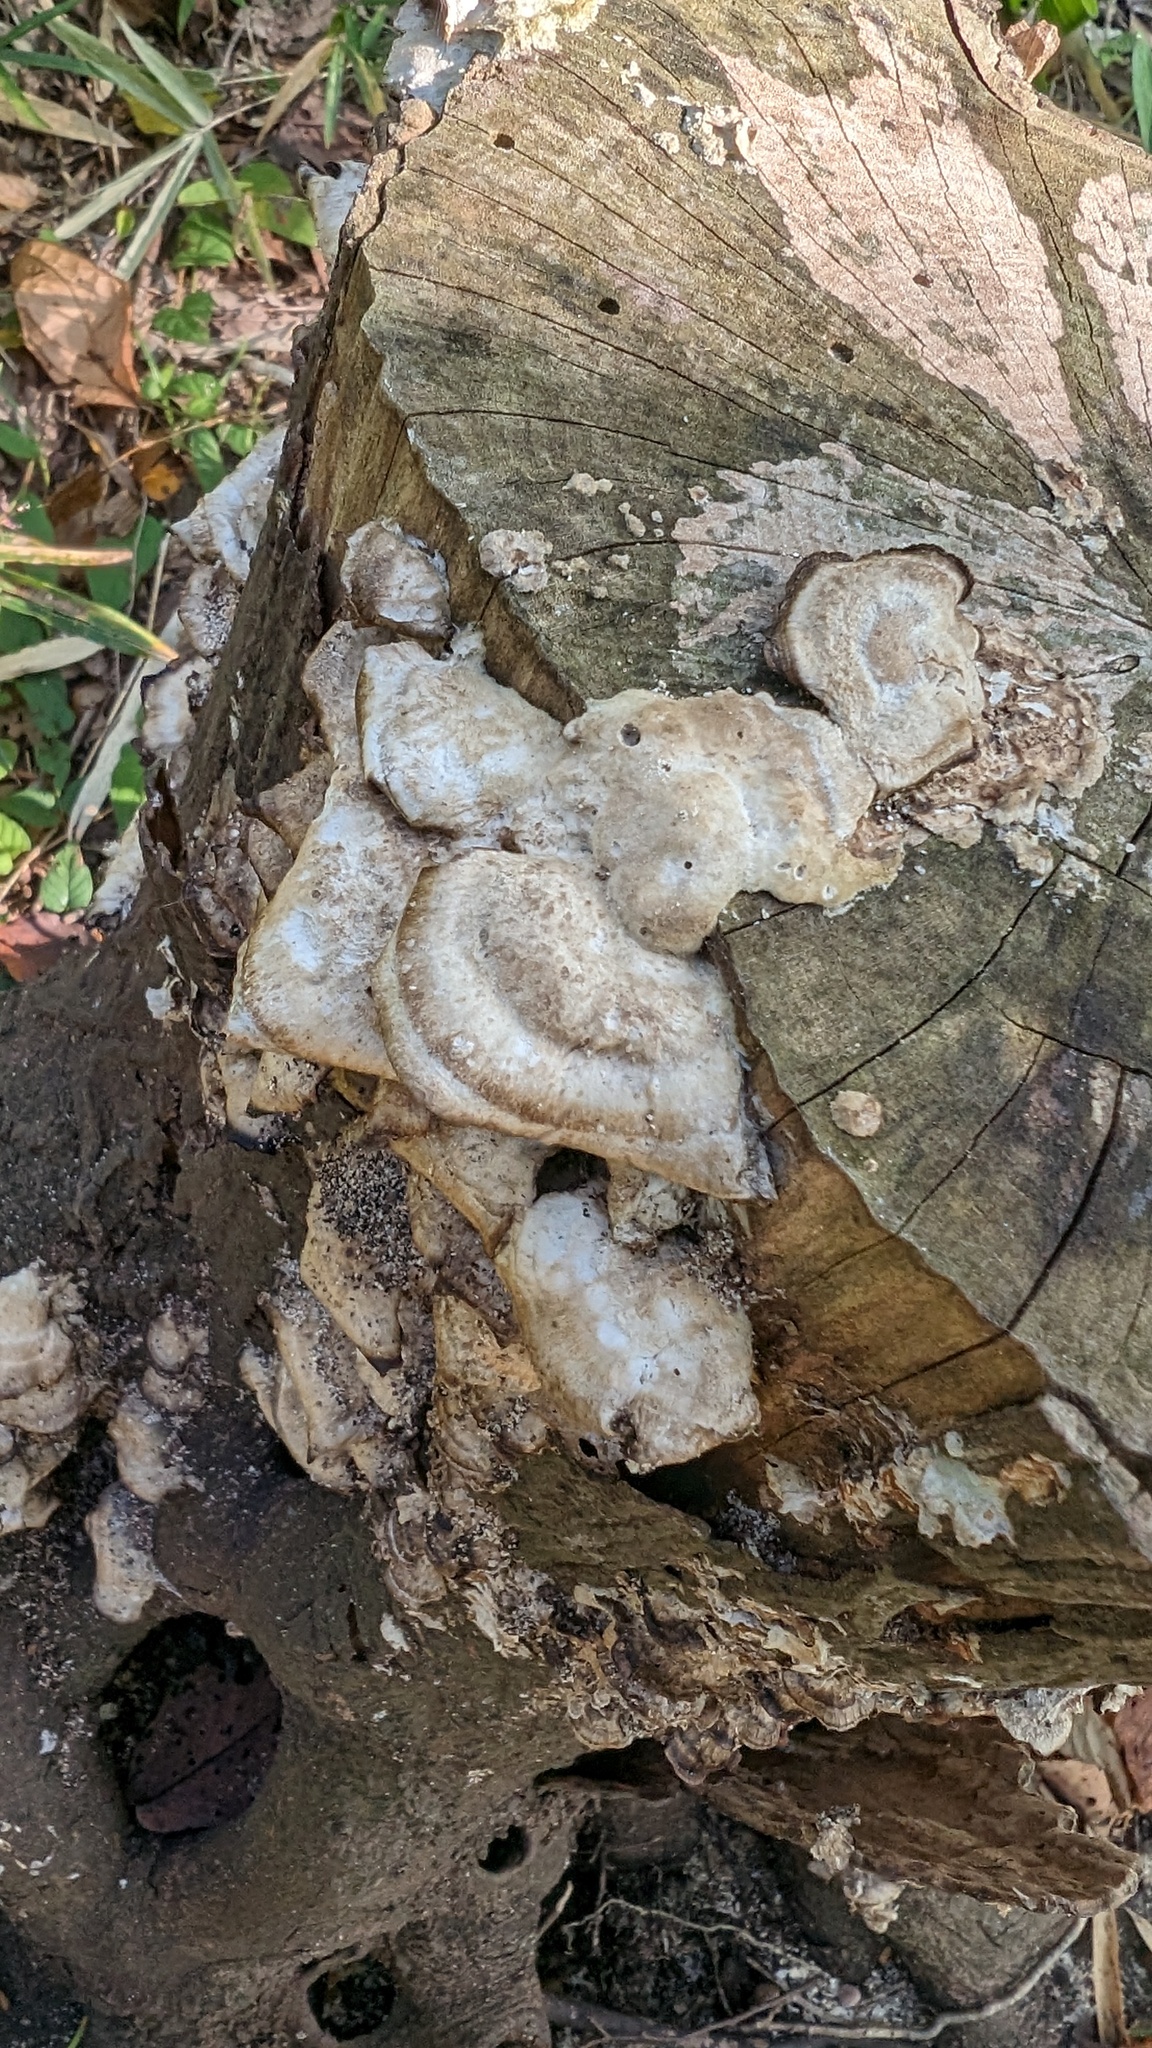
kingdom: Fungi
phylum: Basidiomycota
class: Agaricomycetes
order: Polyporales
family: Phanerochaetaceae
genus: Bjerkandera
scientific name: Bjerkandera adusta
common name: Smoky bracket
